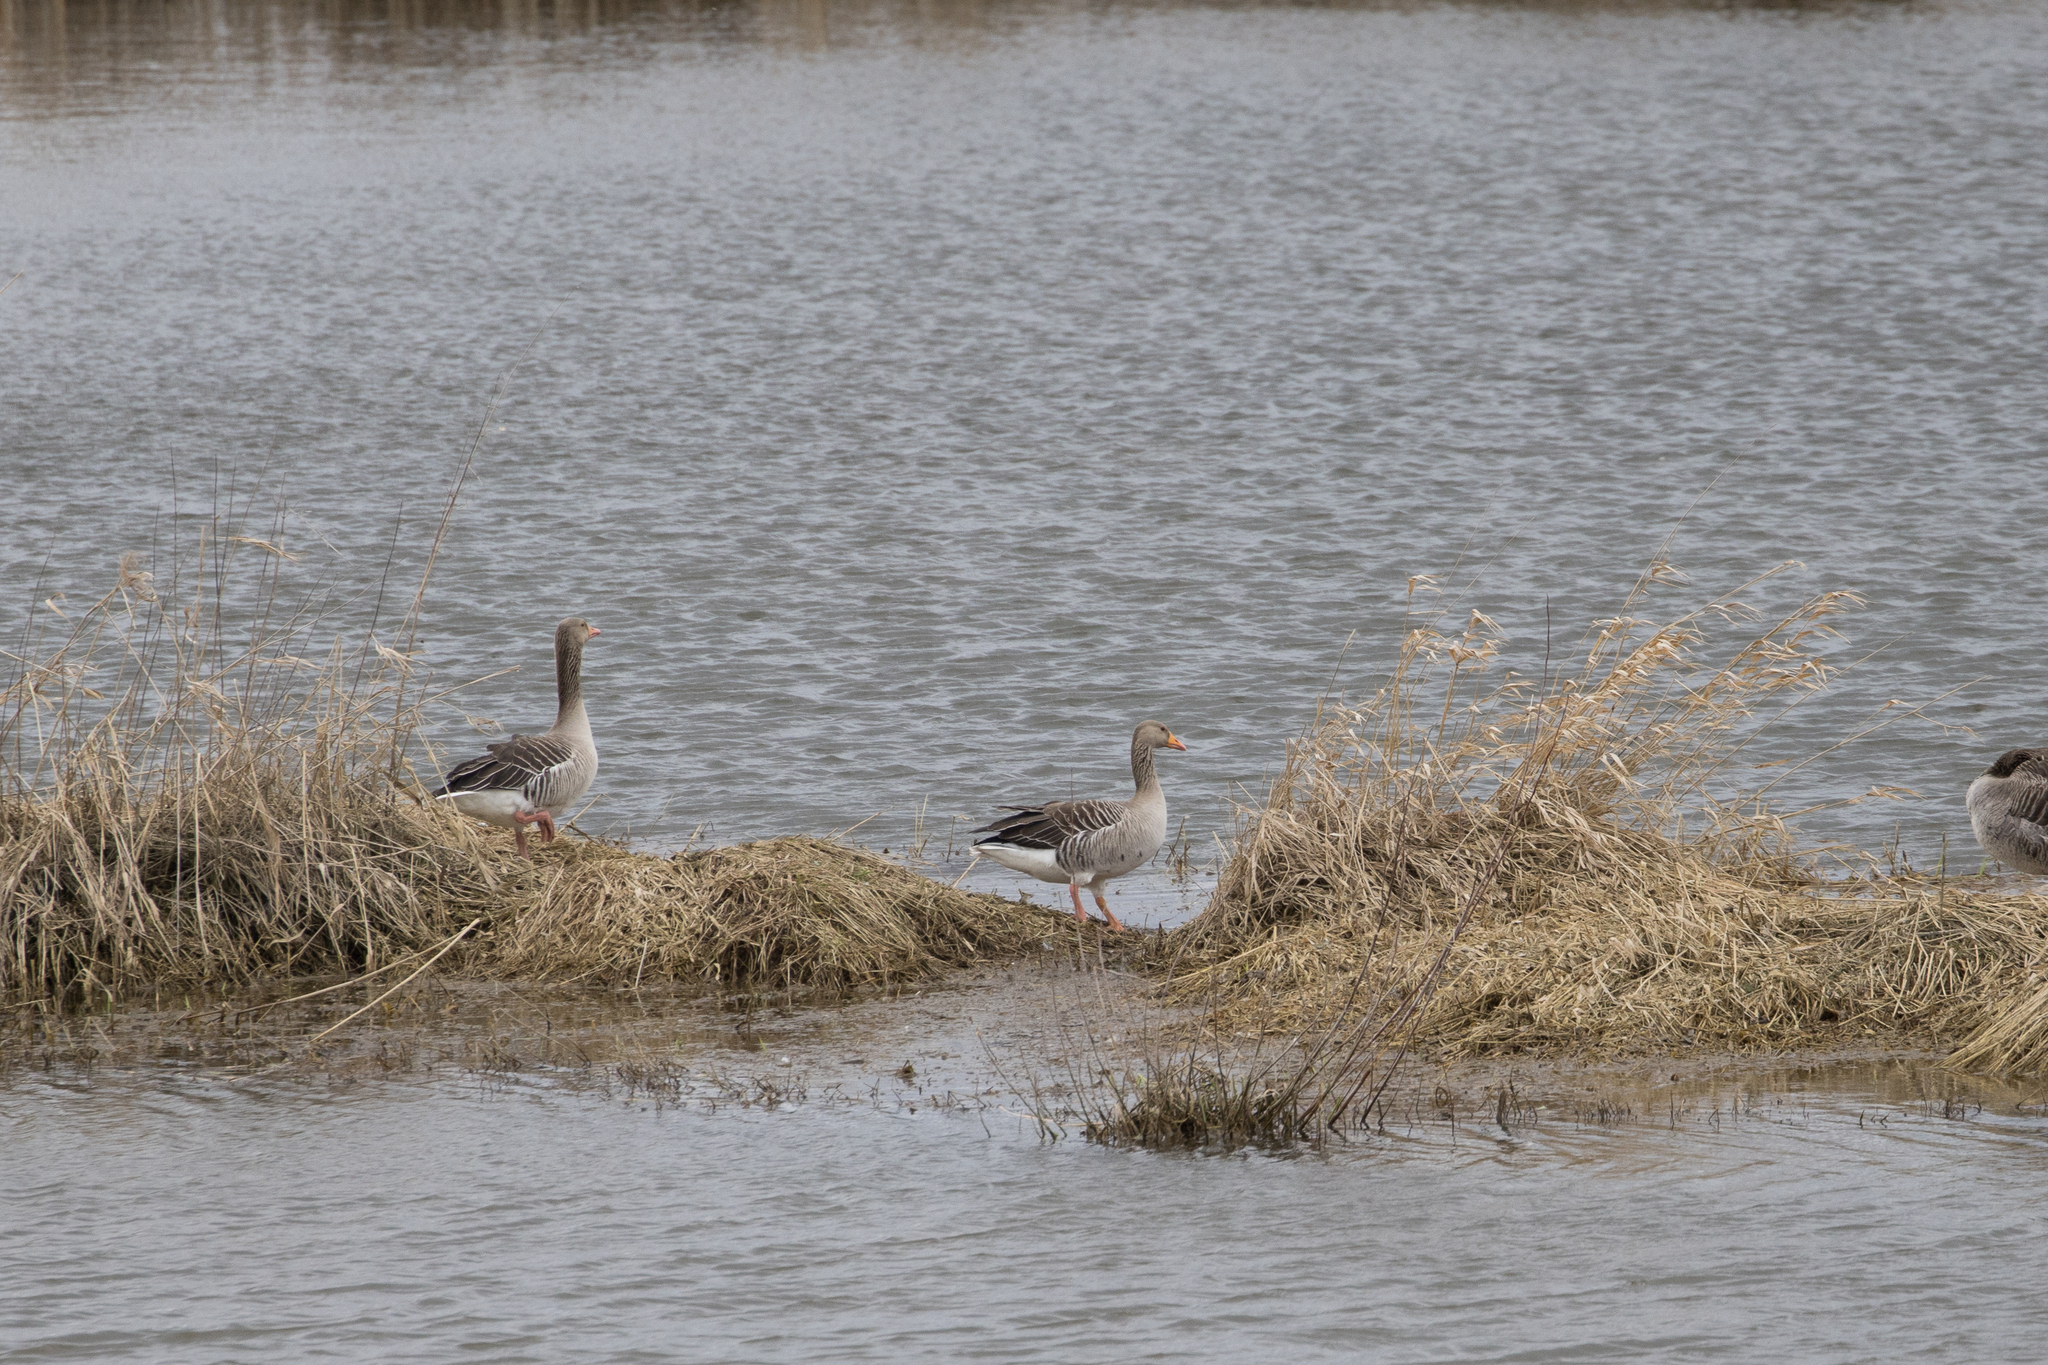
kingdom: Animalia
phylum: Chordata
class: Aves
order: Anseriformes
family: Anatidae
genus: Anser
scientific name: Anser anser
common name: Greylag goose
